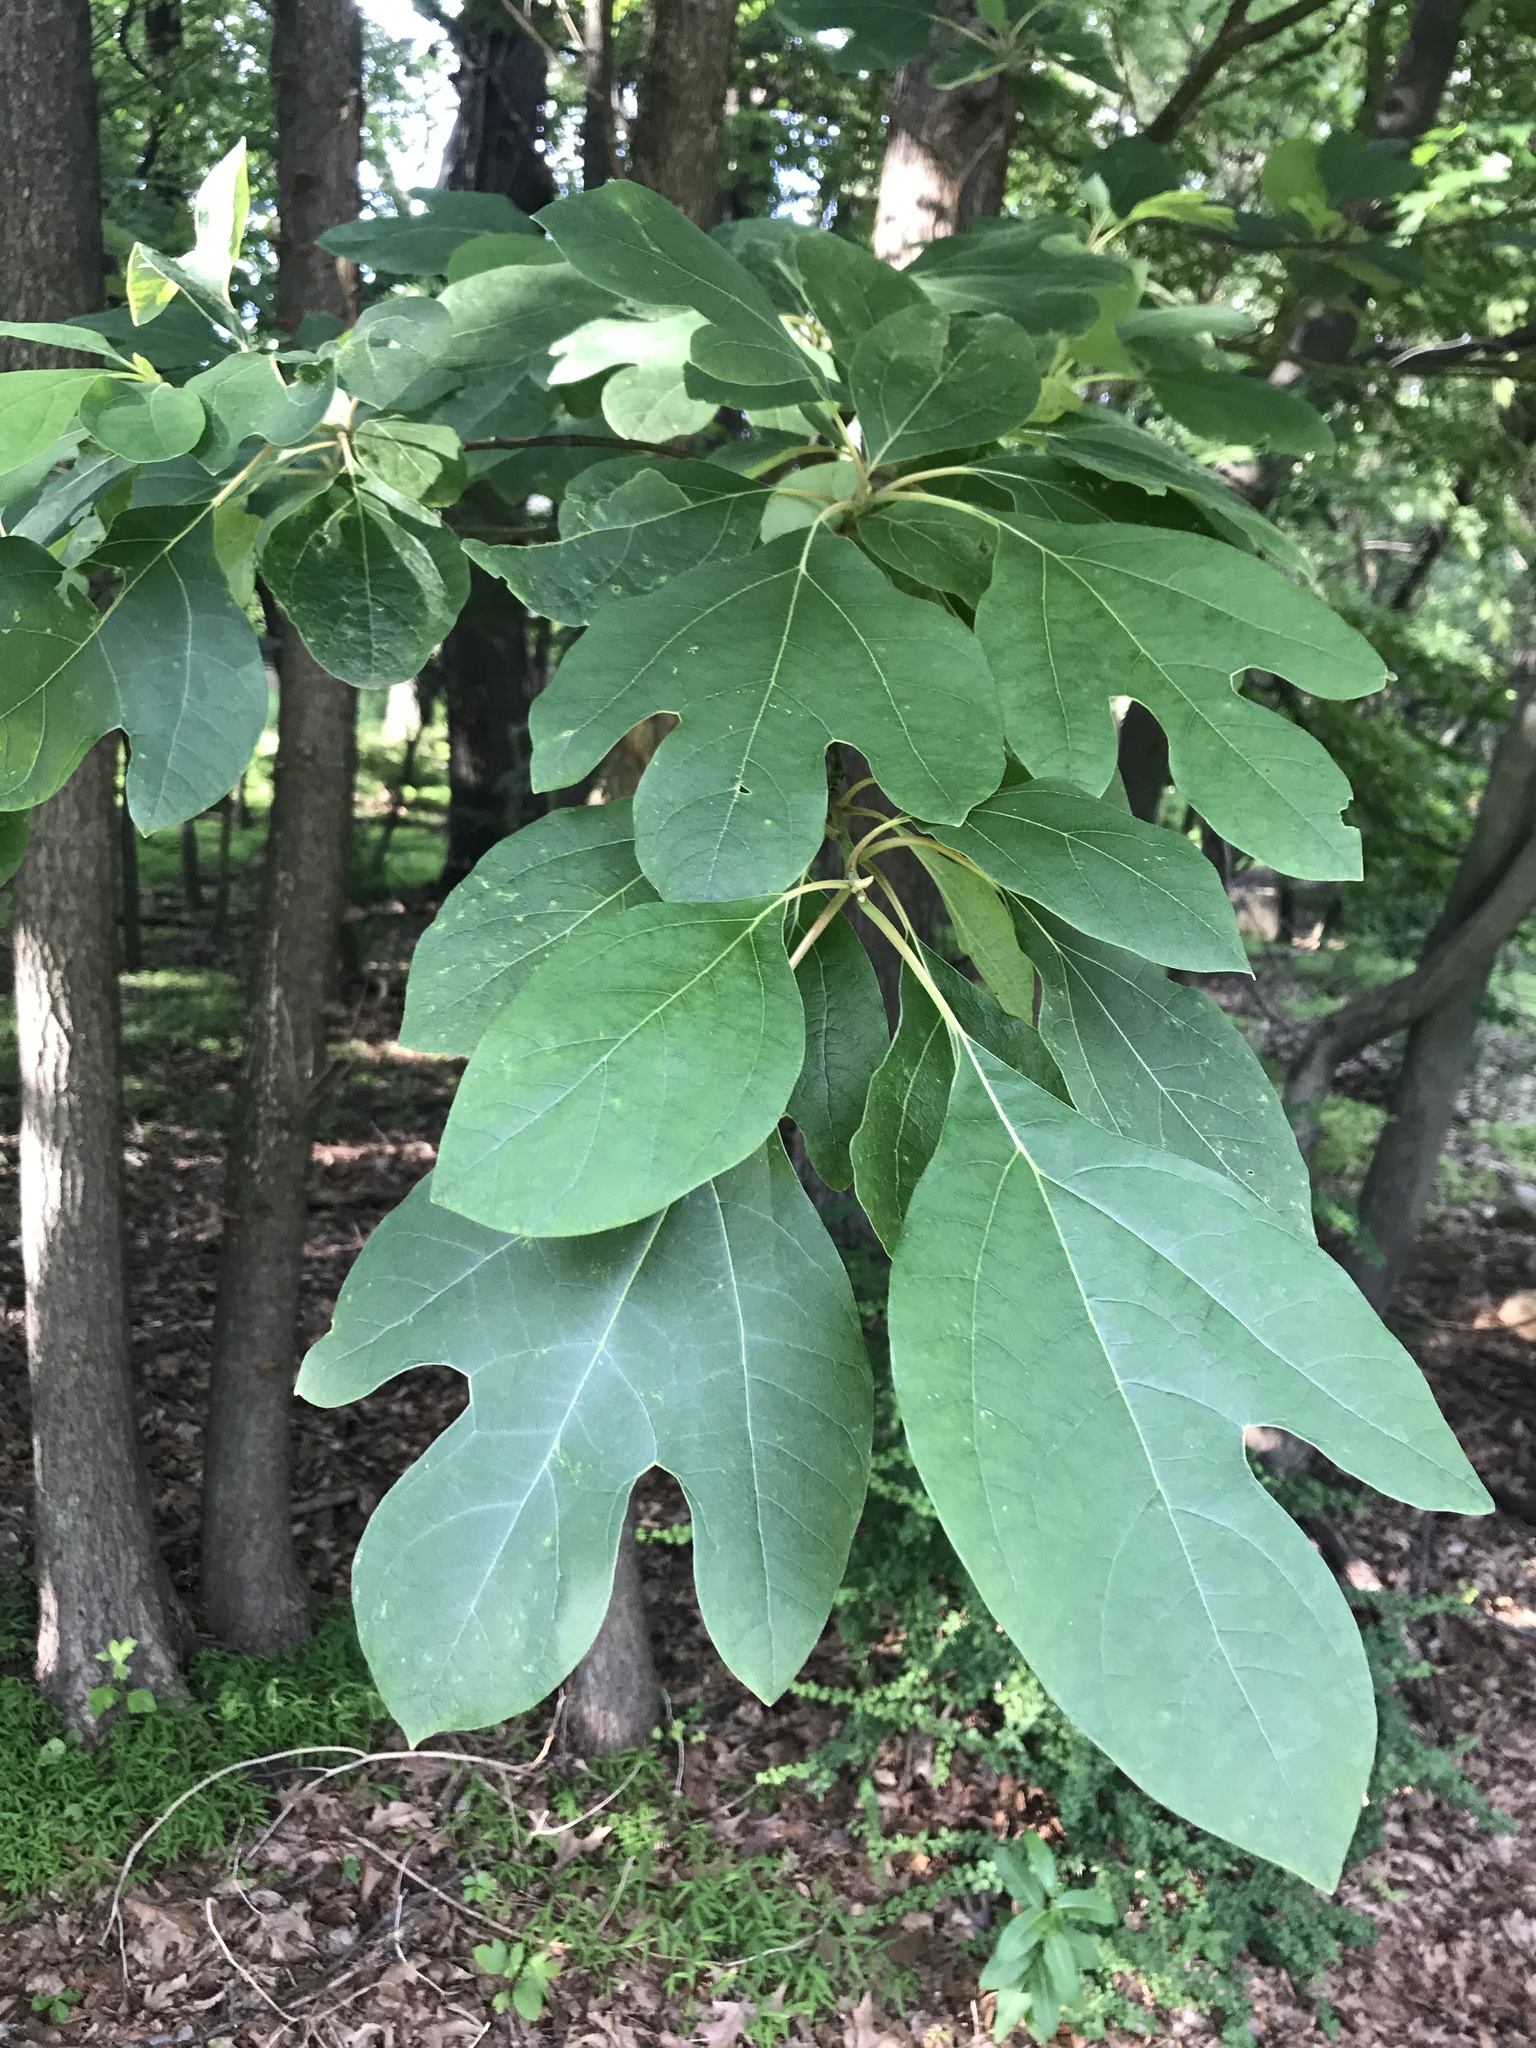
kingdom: Plantae
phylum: Tracheophyta
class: Magnoliopsida
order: Laurales
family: Lauraceae
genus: Sassafras
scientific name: Sassafras albidum
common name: Sassafras
